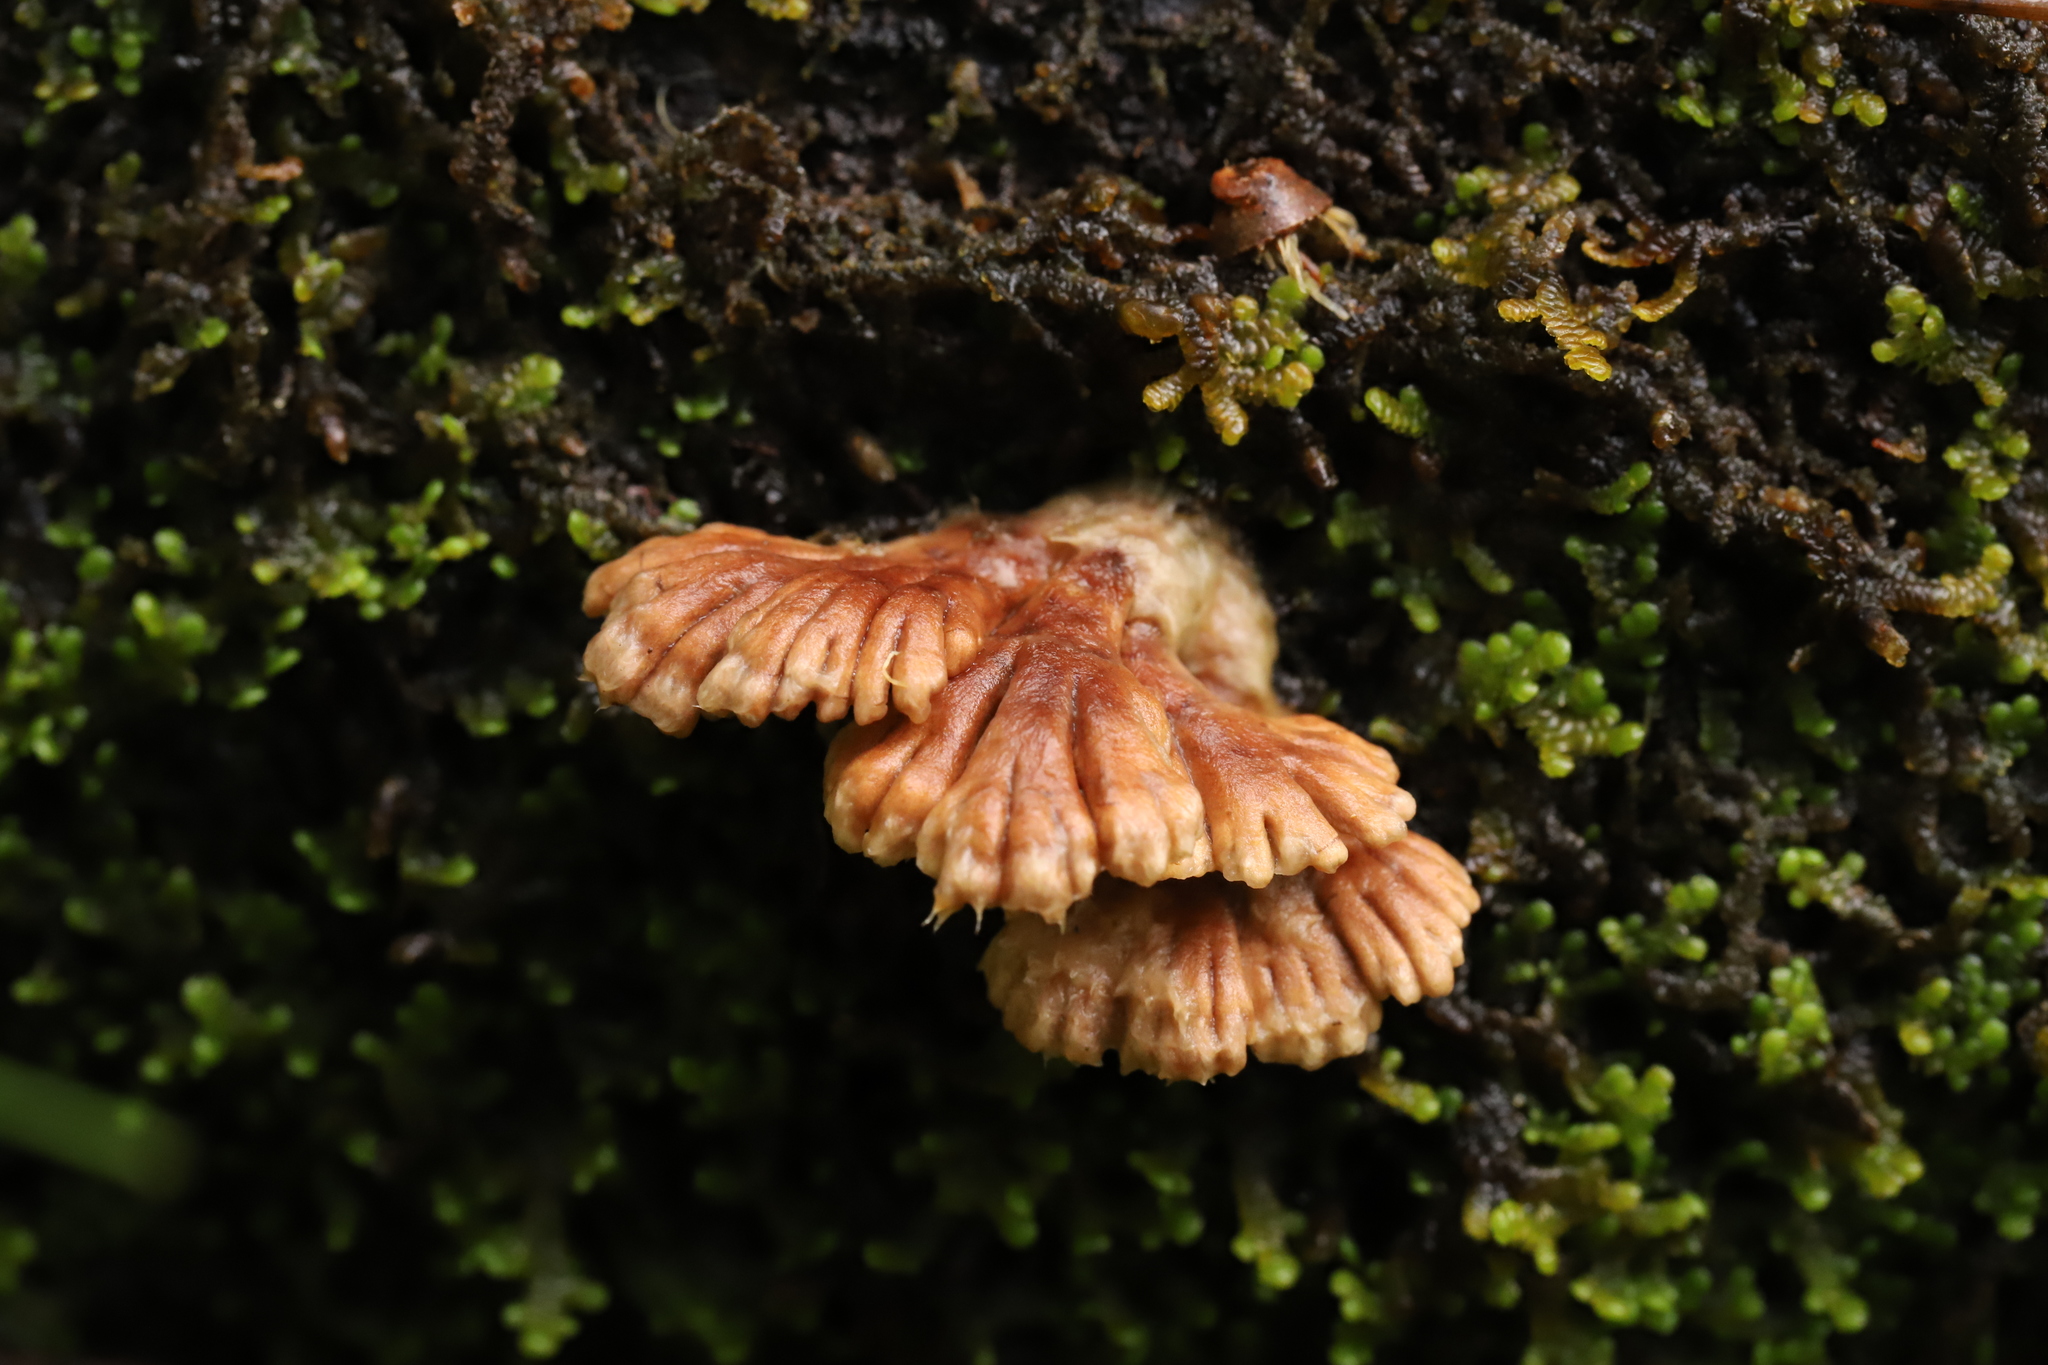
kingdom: Fungi
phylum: Basidiomycota
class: Agaricomycetes
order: Agaricales
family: Schizophyllaceae
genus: Schizophyllum
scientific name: Schizophyllum commune
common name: Common porecrust
